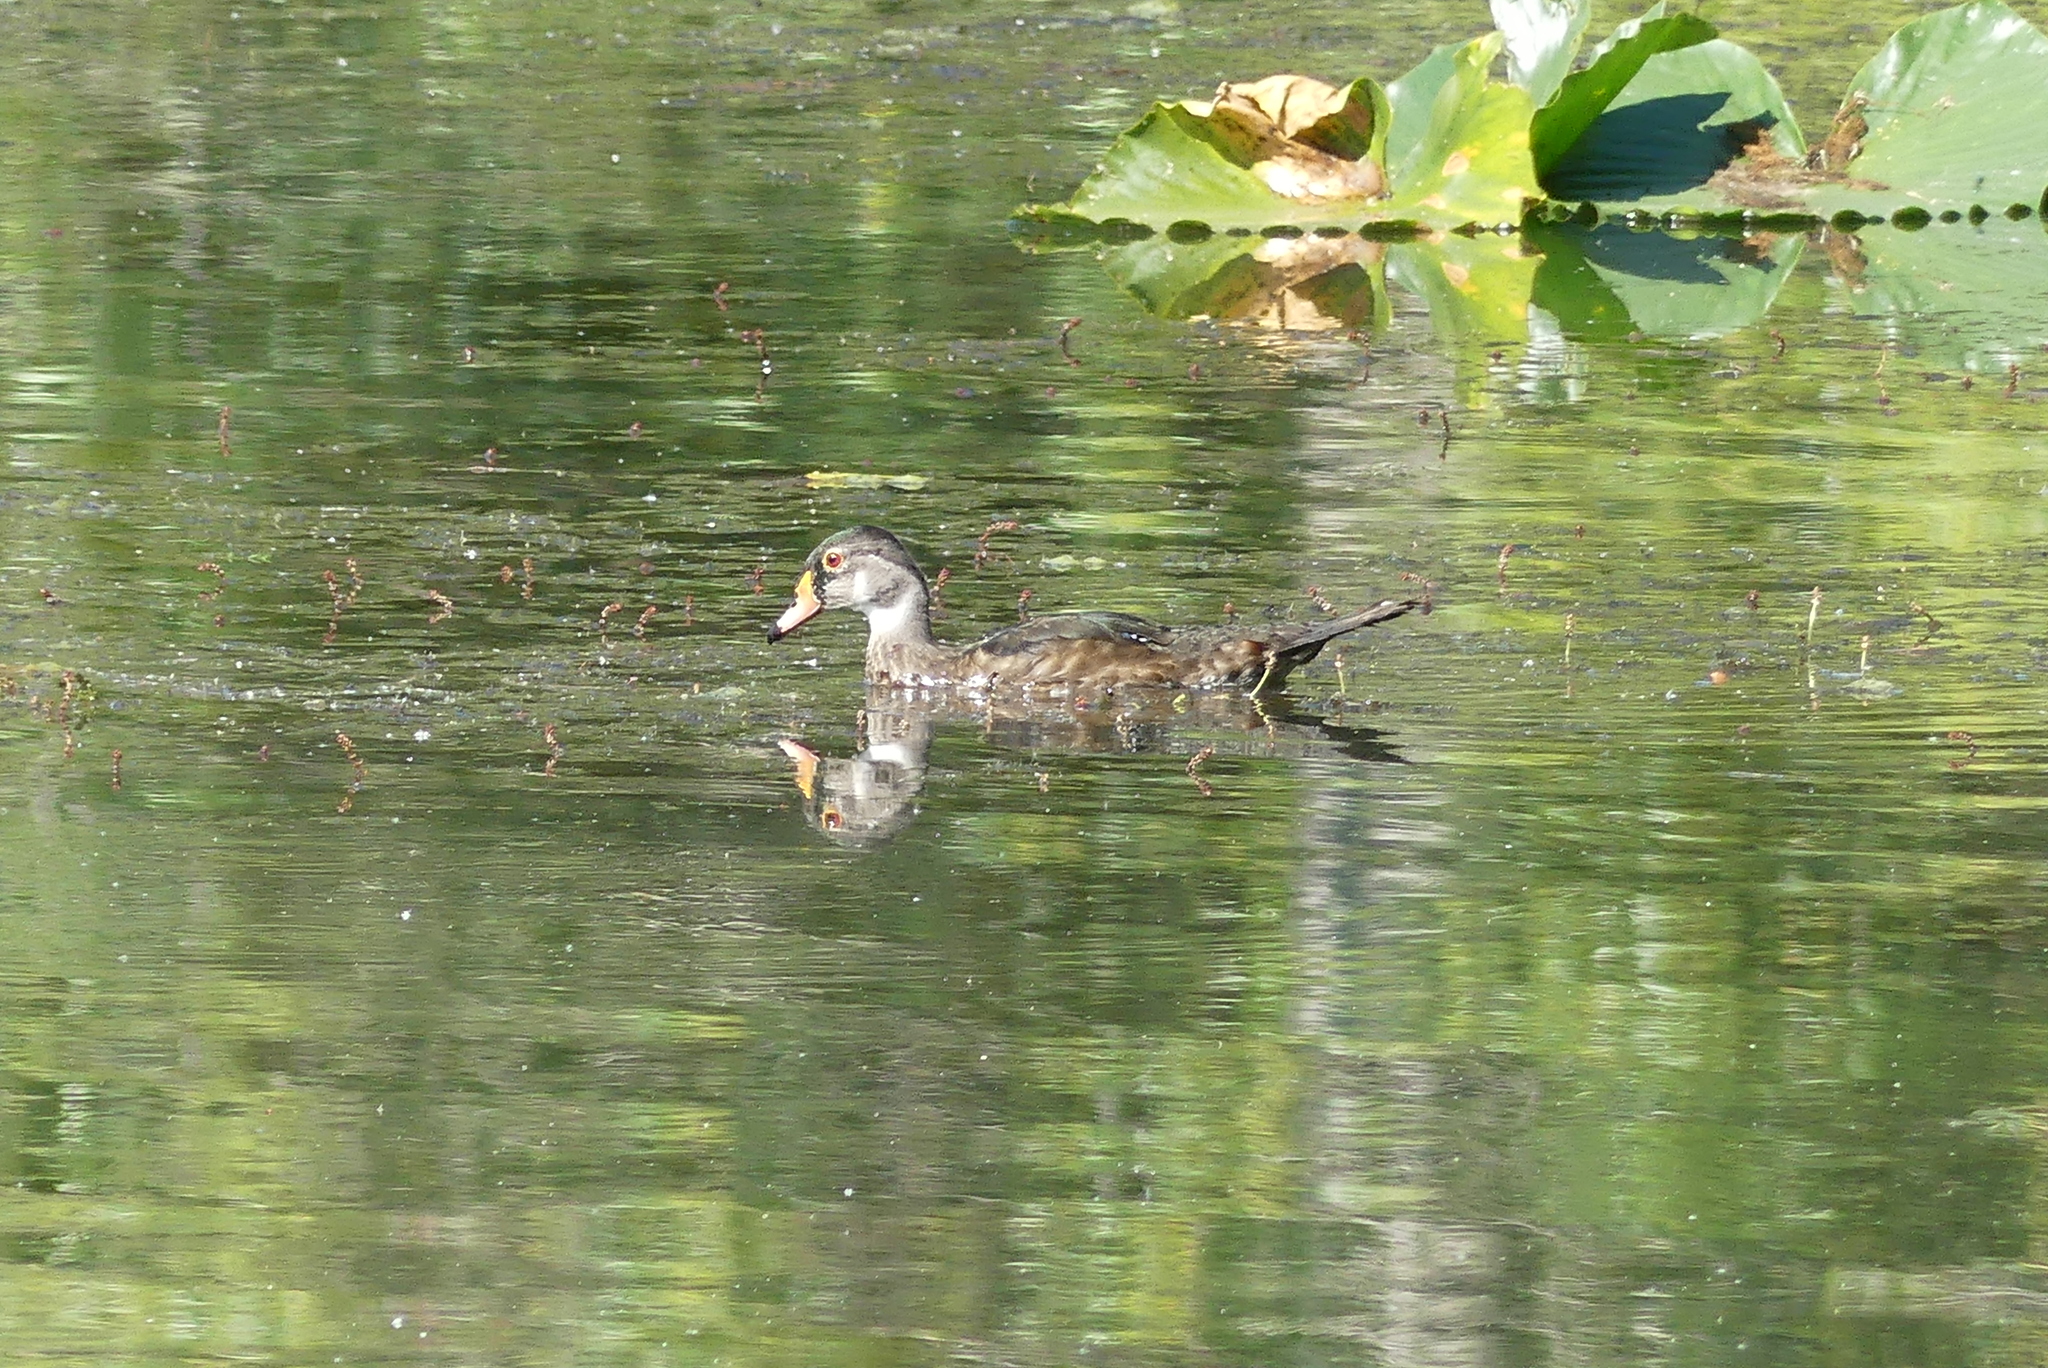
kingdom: Animalia
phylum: Chordata
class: Aves
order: Anseriformes
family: Anatidae
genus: Aix
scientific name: Aix sponsa
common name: Wood duck
